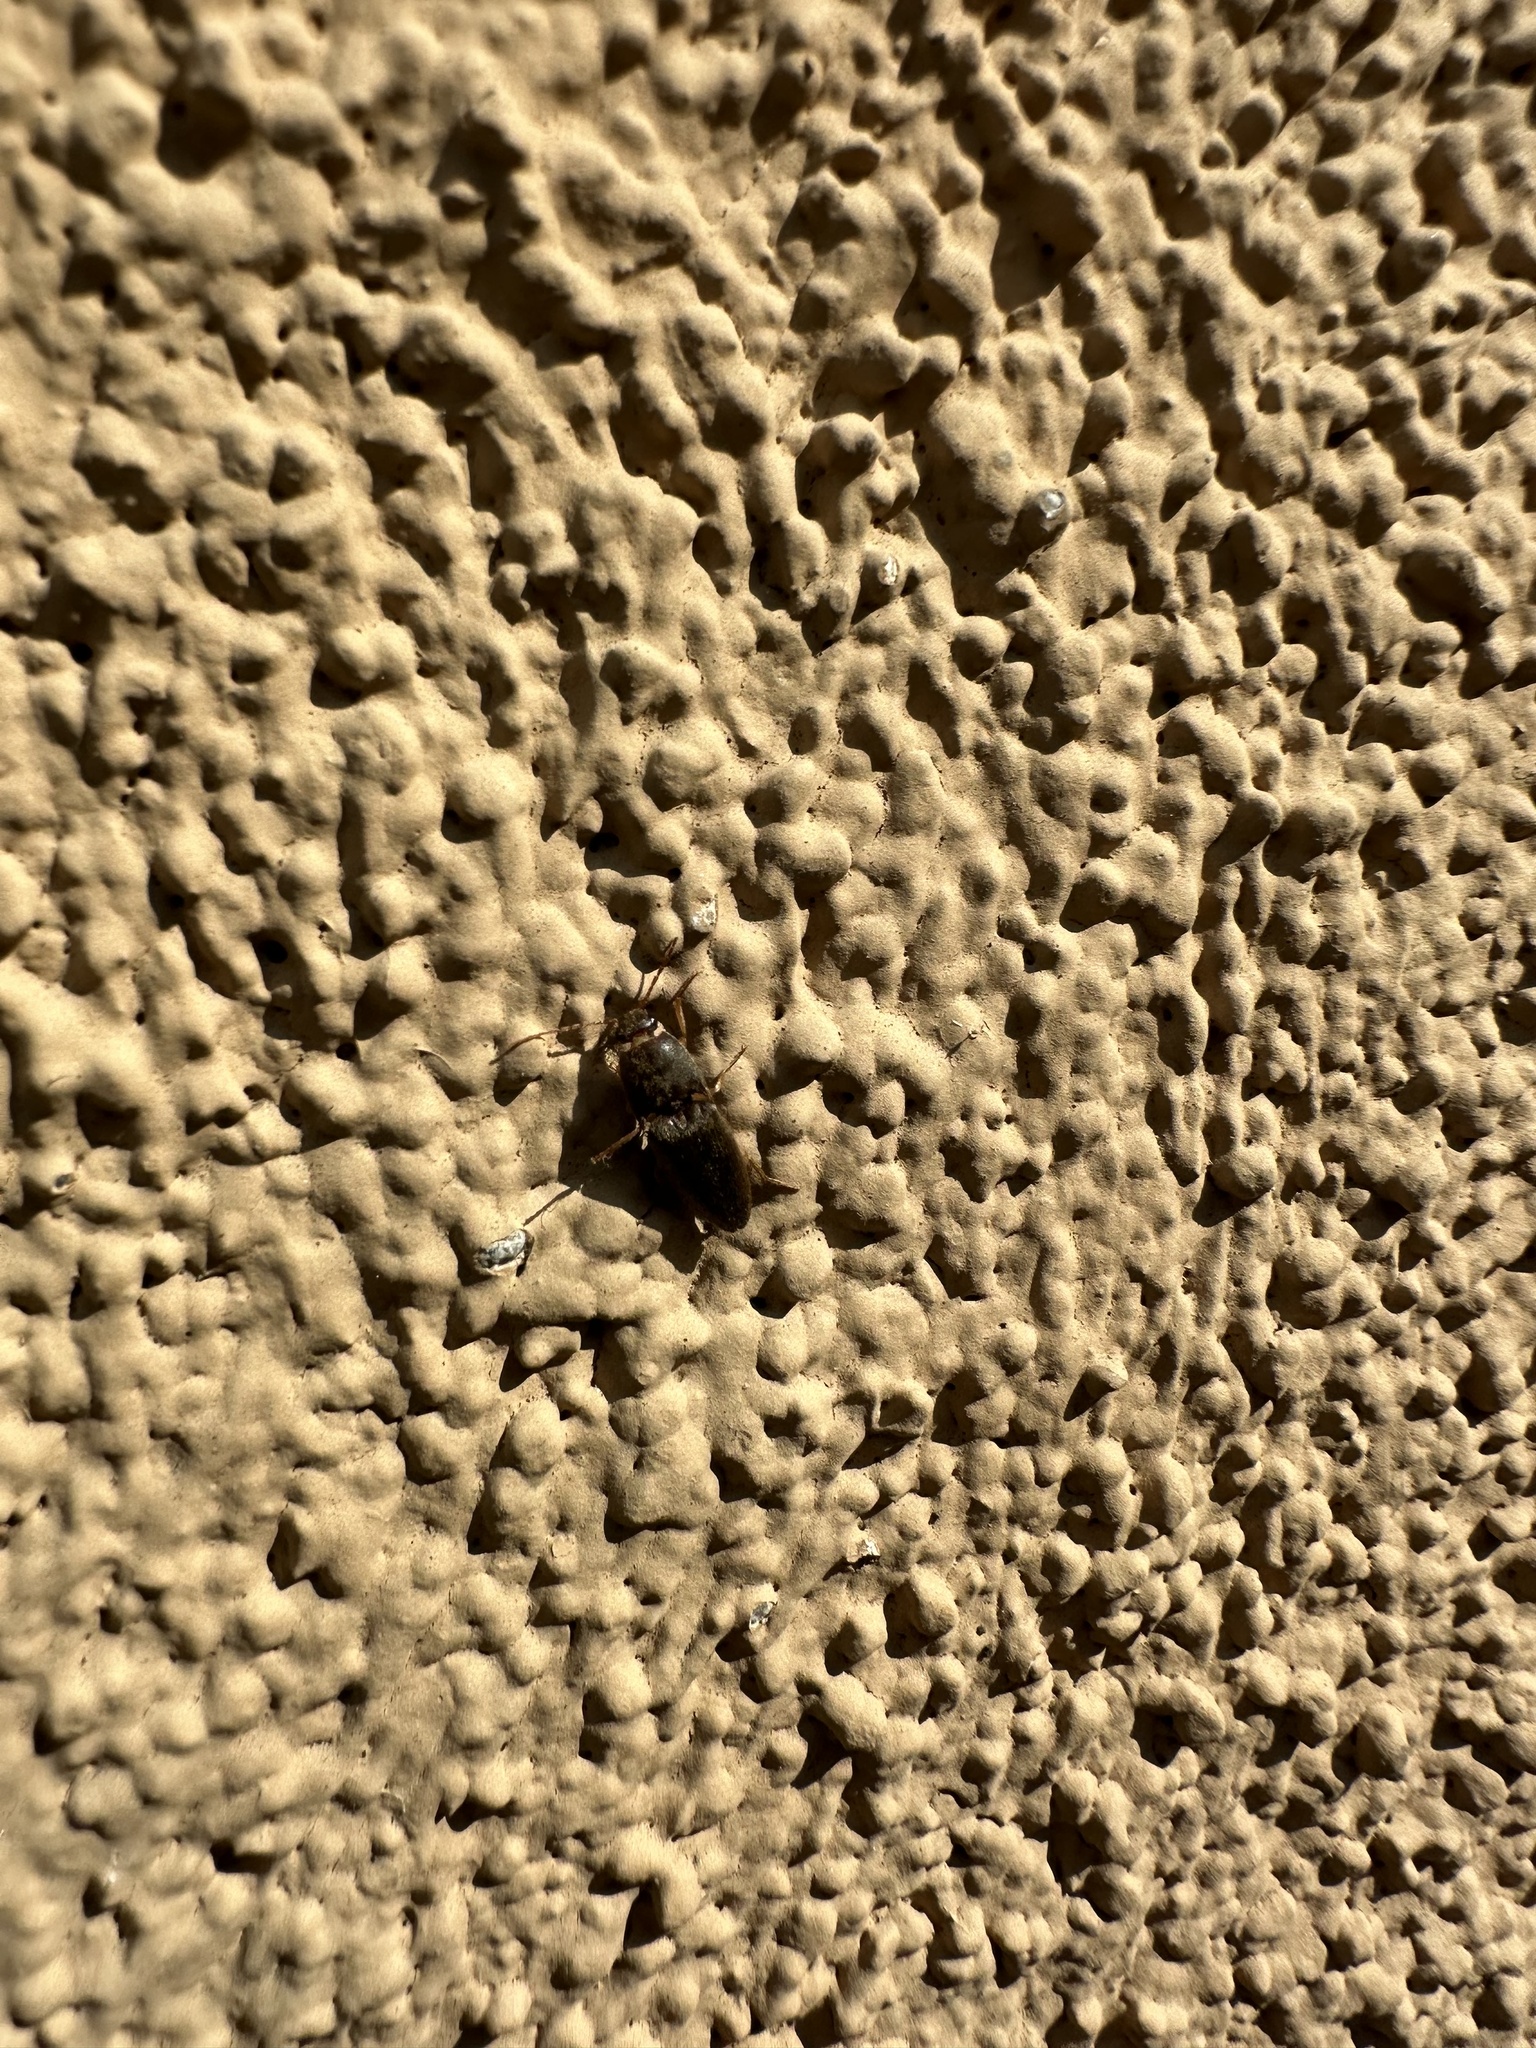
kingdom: Animalia
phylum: Arthropoda
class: Insecta
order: Coleoptera
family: Elateridae
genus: Conoderus
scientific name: Conoderus exsul
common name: Click beetle
